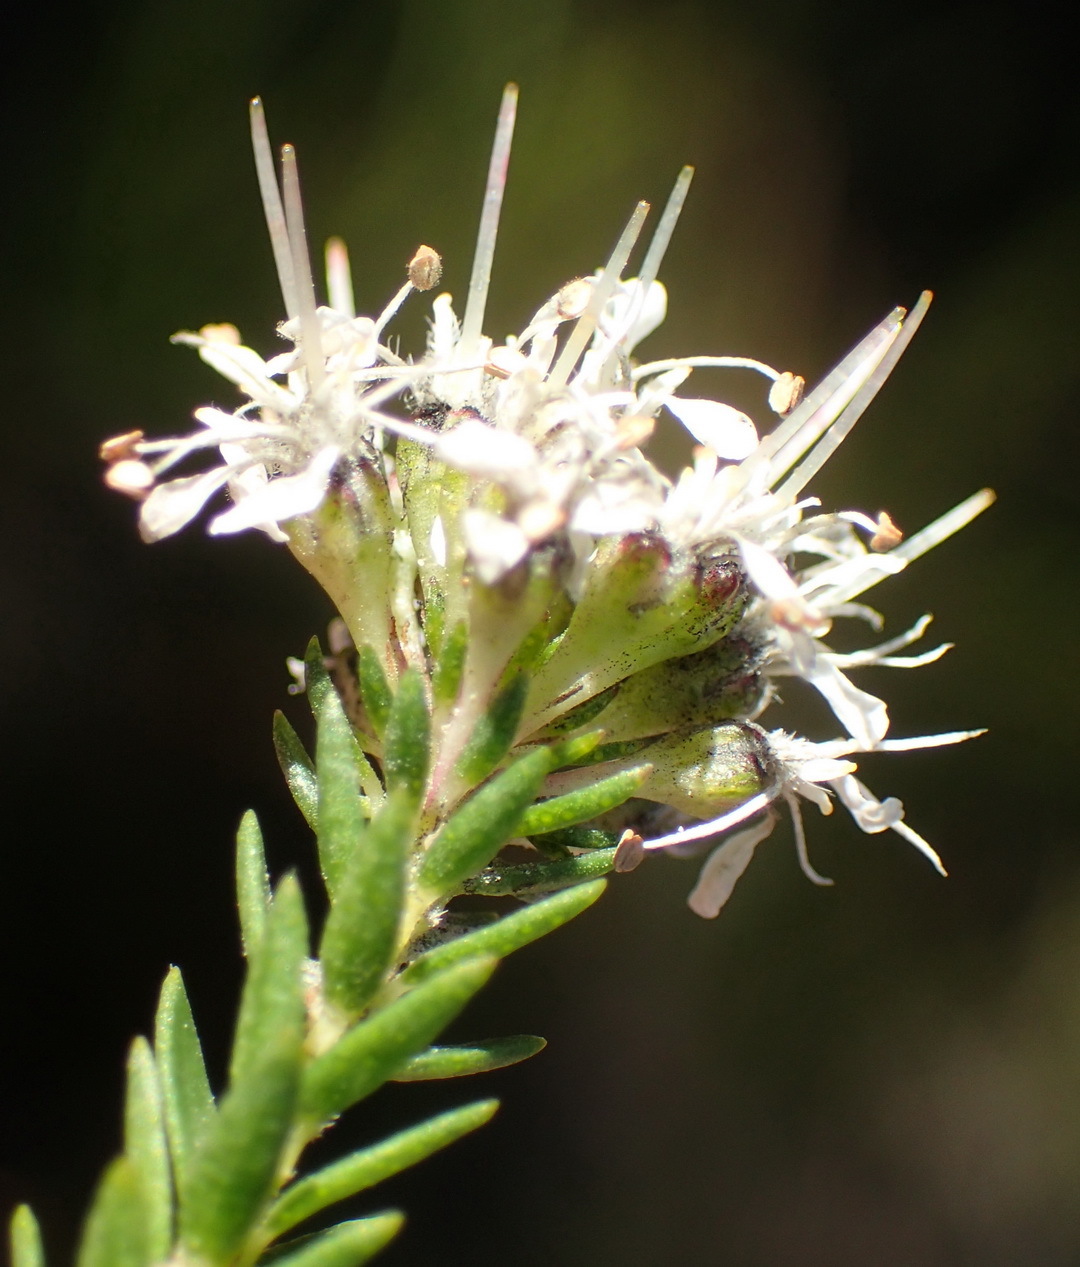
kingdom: Plantae
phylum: Tracheophyta
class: Magnoliopsida
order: Sapindales
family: Rutaceae
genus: Agathosma
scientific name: Agathosma stenopetala
